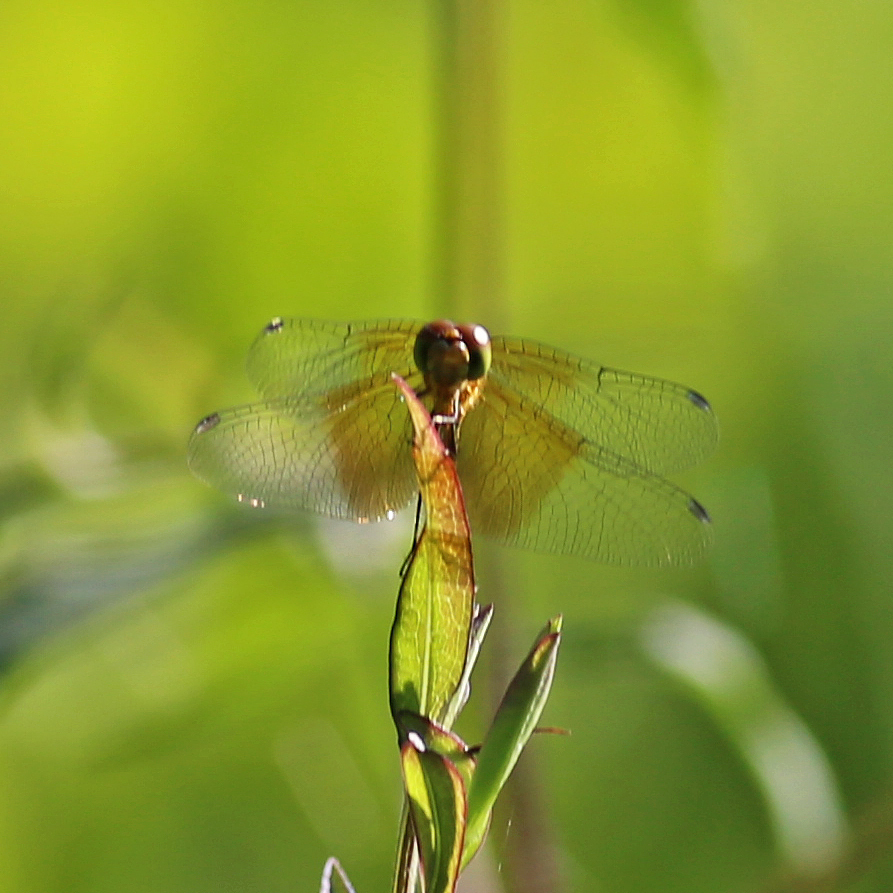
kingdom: Animalia
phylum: Arthropoda
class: Insecta
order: Odonata
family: Libellulidae
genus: Sympetrum
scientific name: Sympetrum semicinctum
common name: Band-winged meadowhawk
